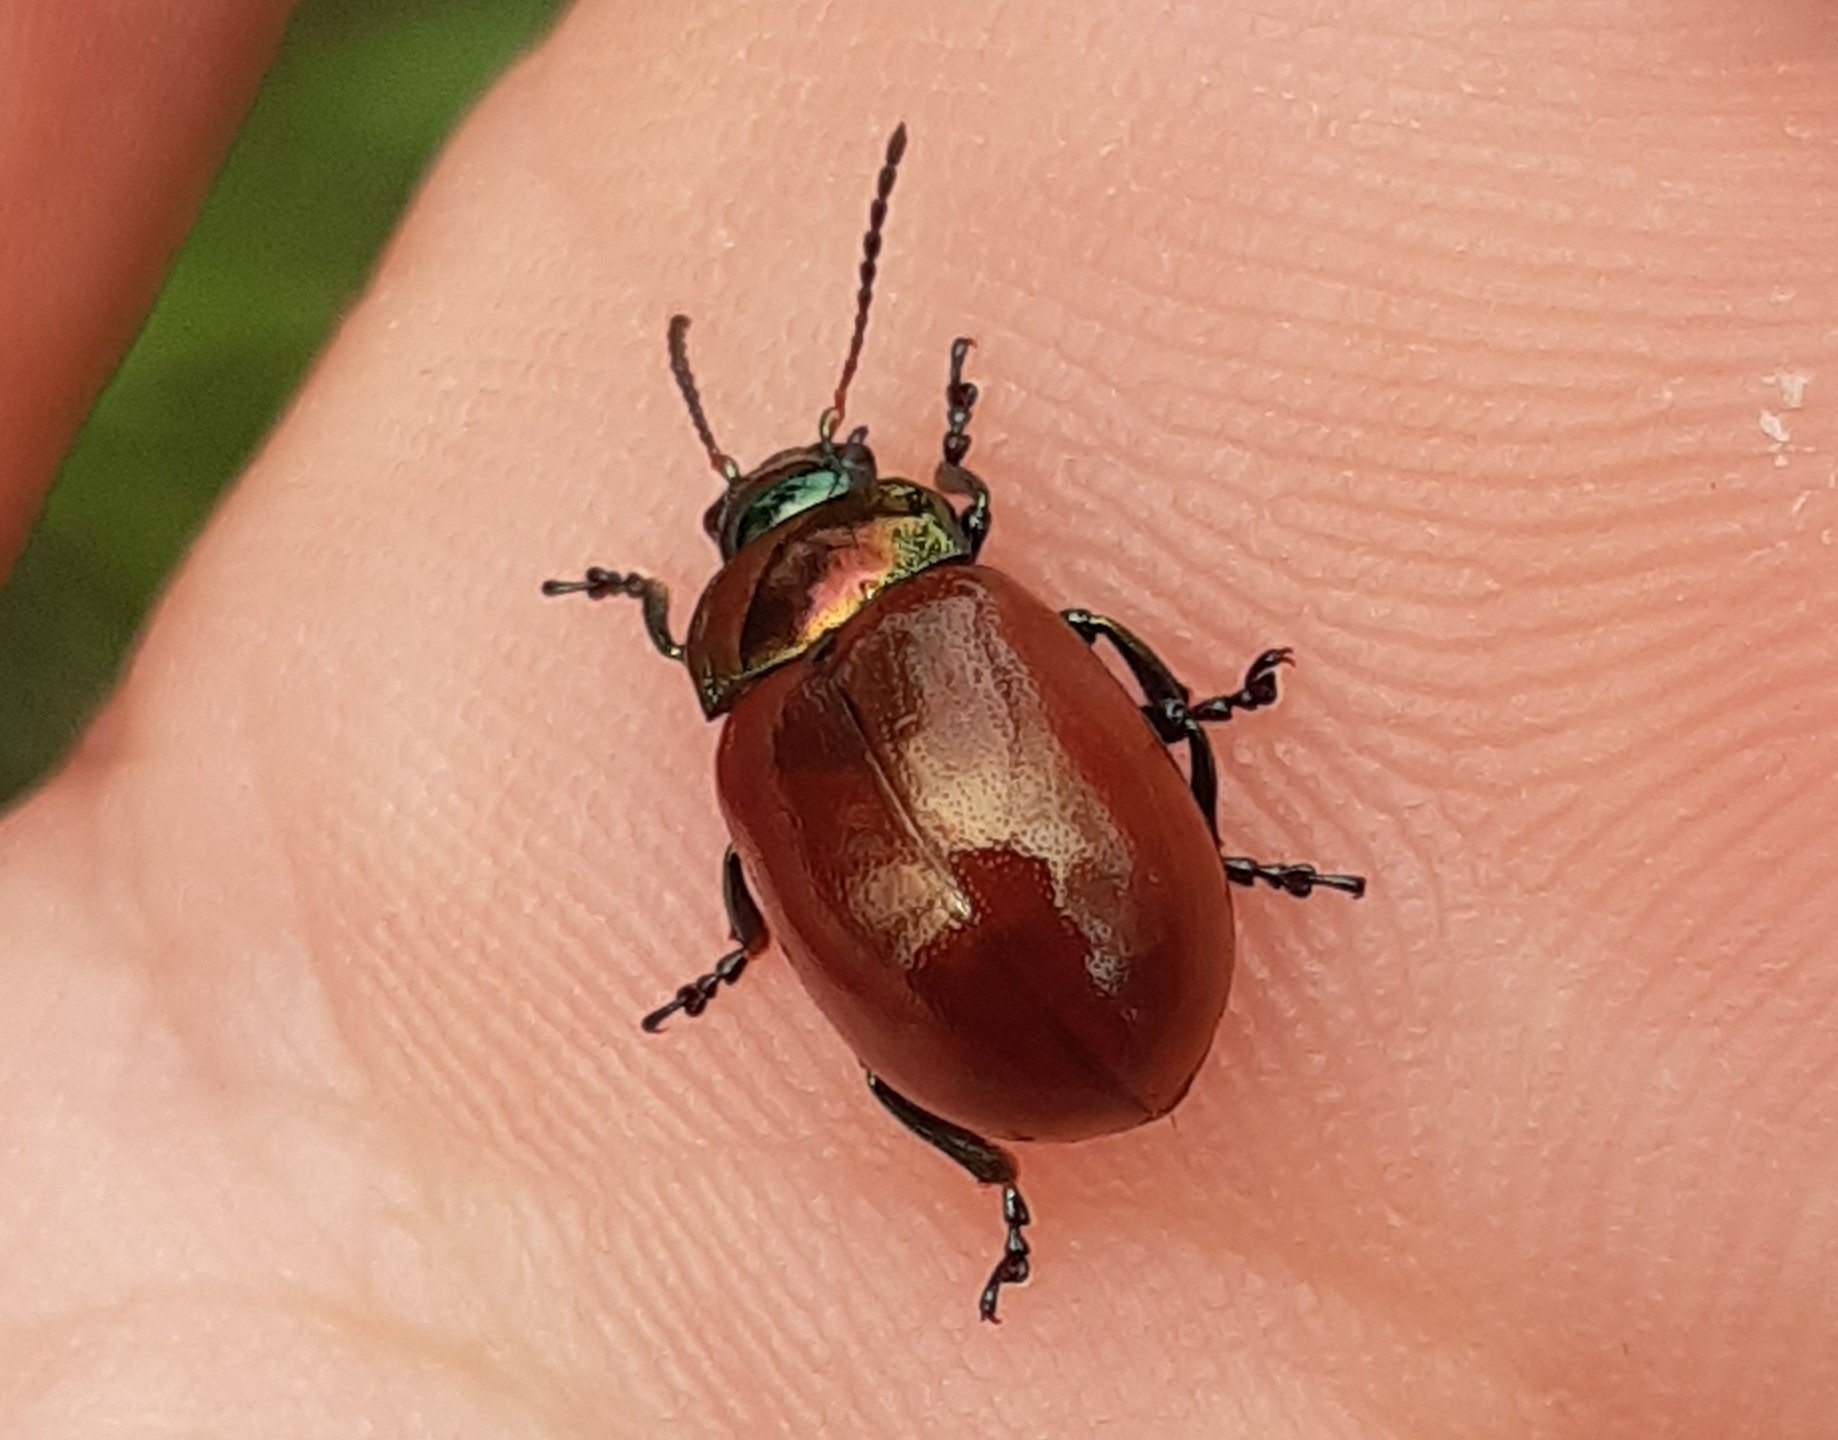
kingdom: Animalia
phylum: Arthropoda
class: Insecta
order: Coleoptera
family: Chrysomelidae
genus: Chrysomela
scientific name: Chrysomela polita
